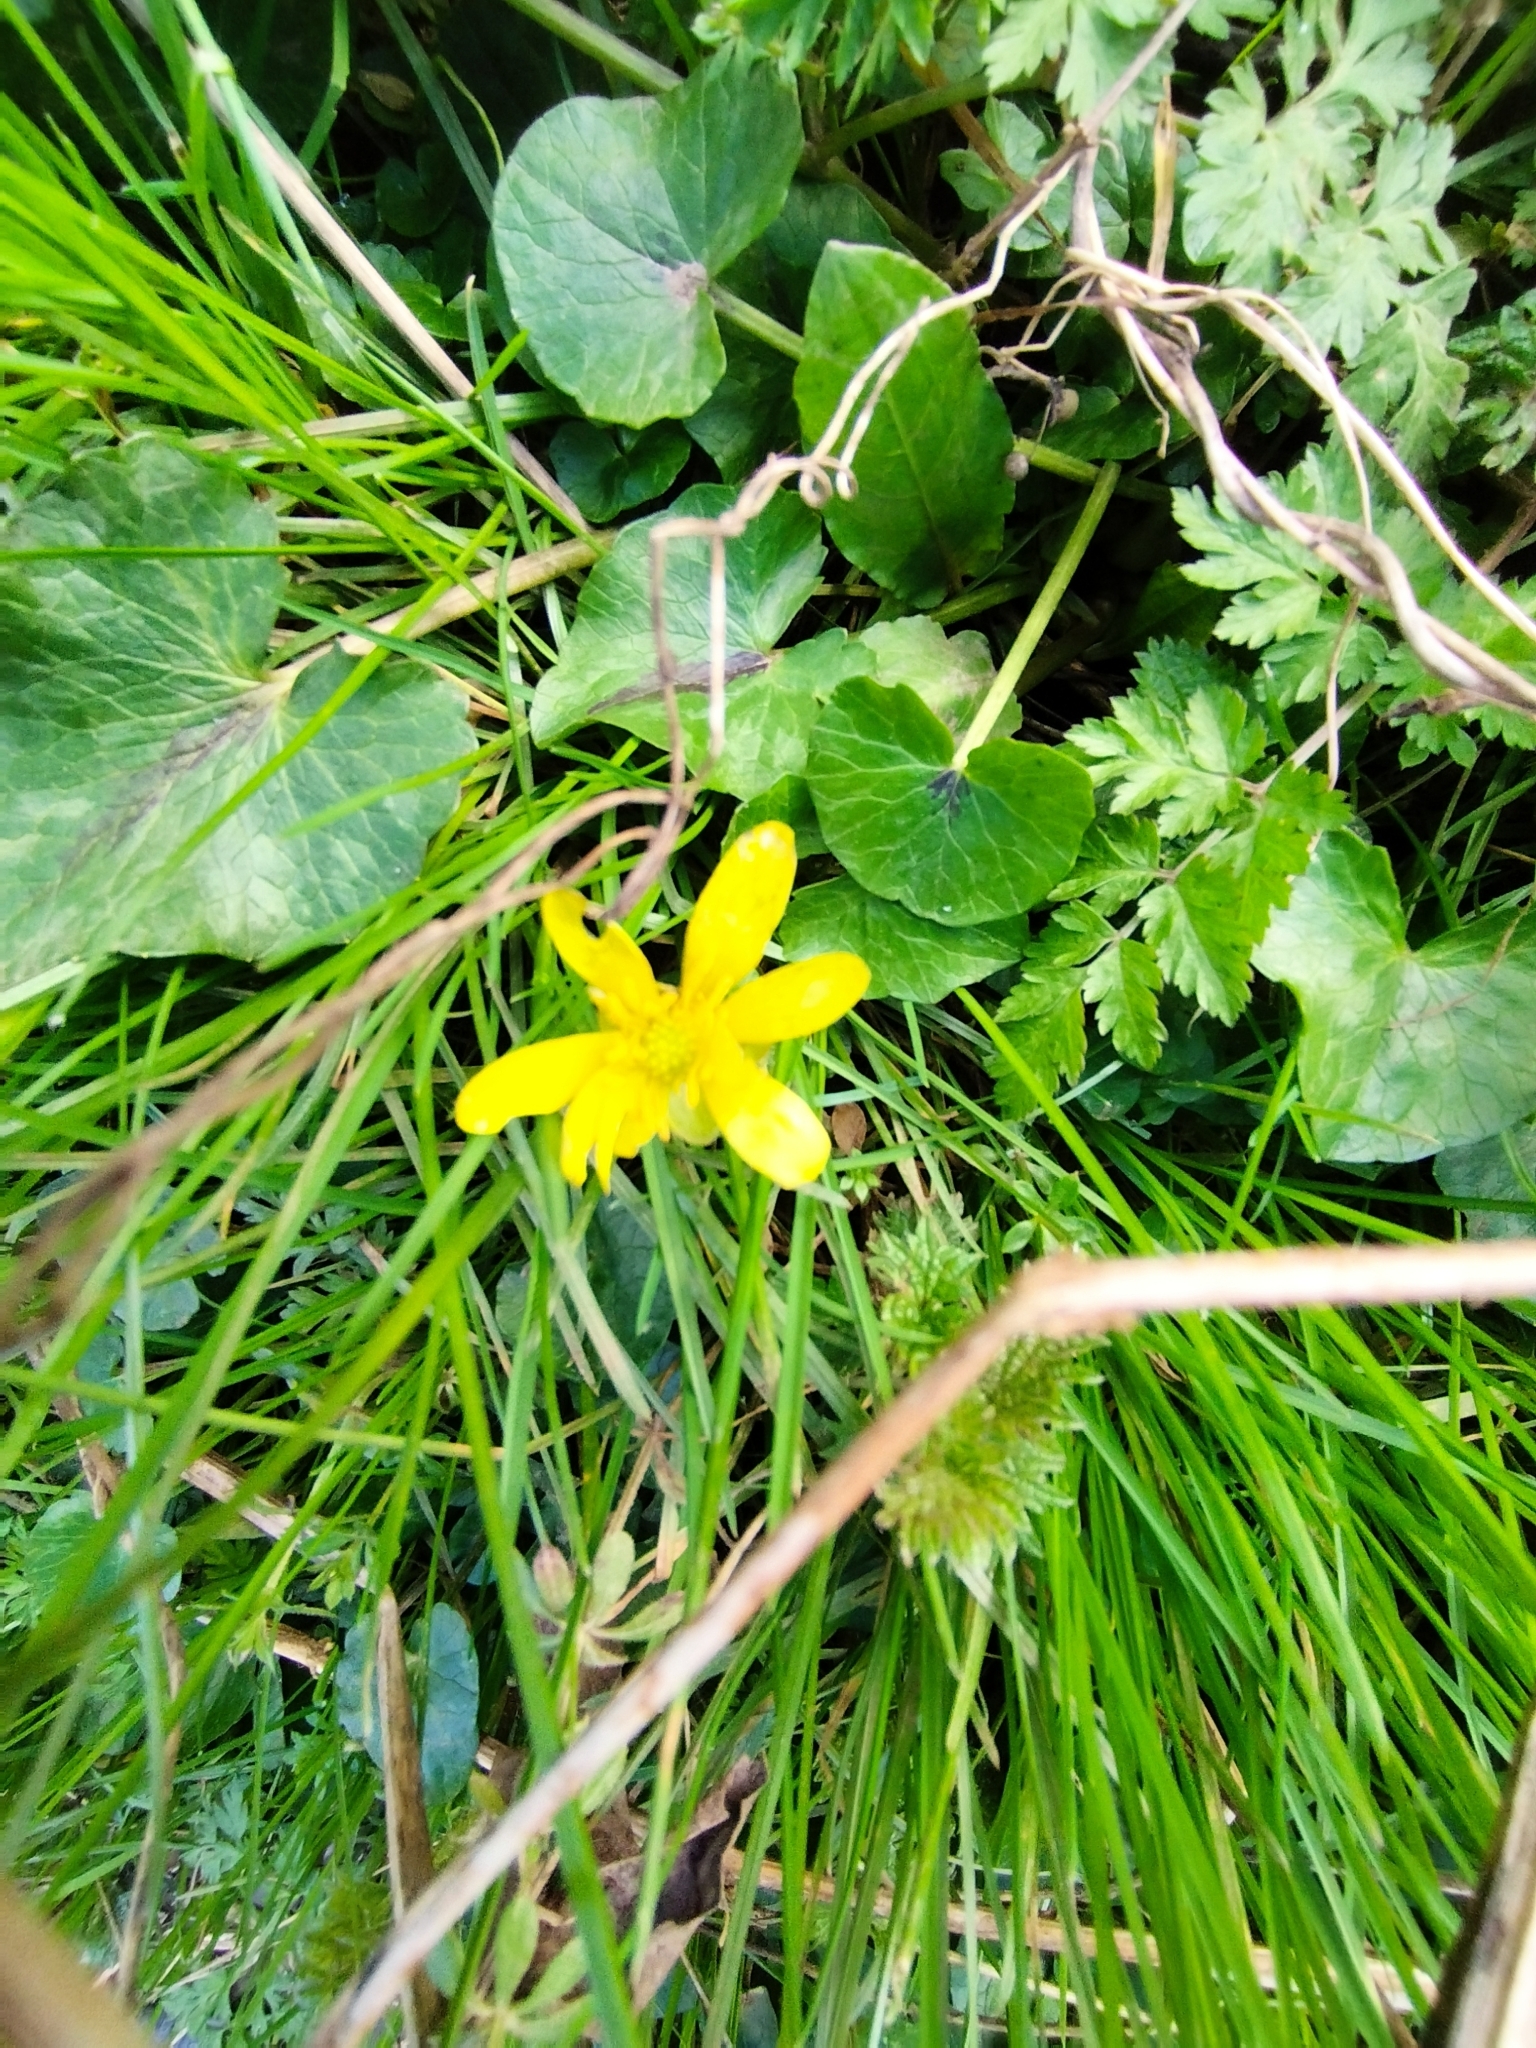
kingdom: Plantae
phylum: Tracheophyta
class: Magnoliopsida
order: Ranunculales
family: Ranunculaceae
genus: Ficaria
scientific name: Ficaria verna
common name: Lesser celandine
